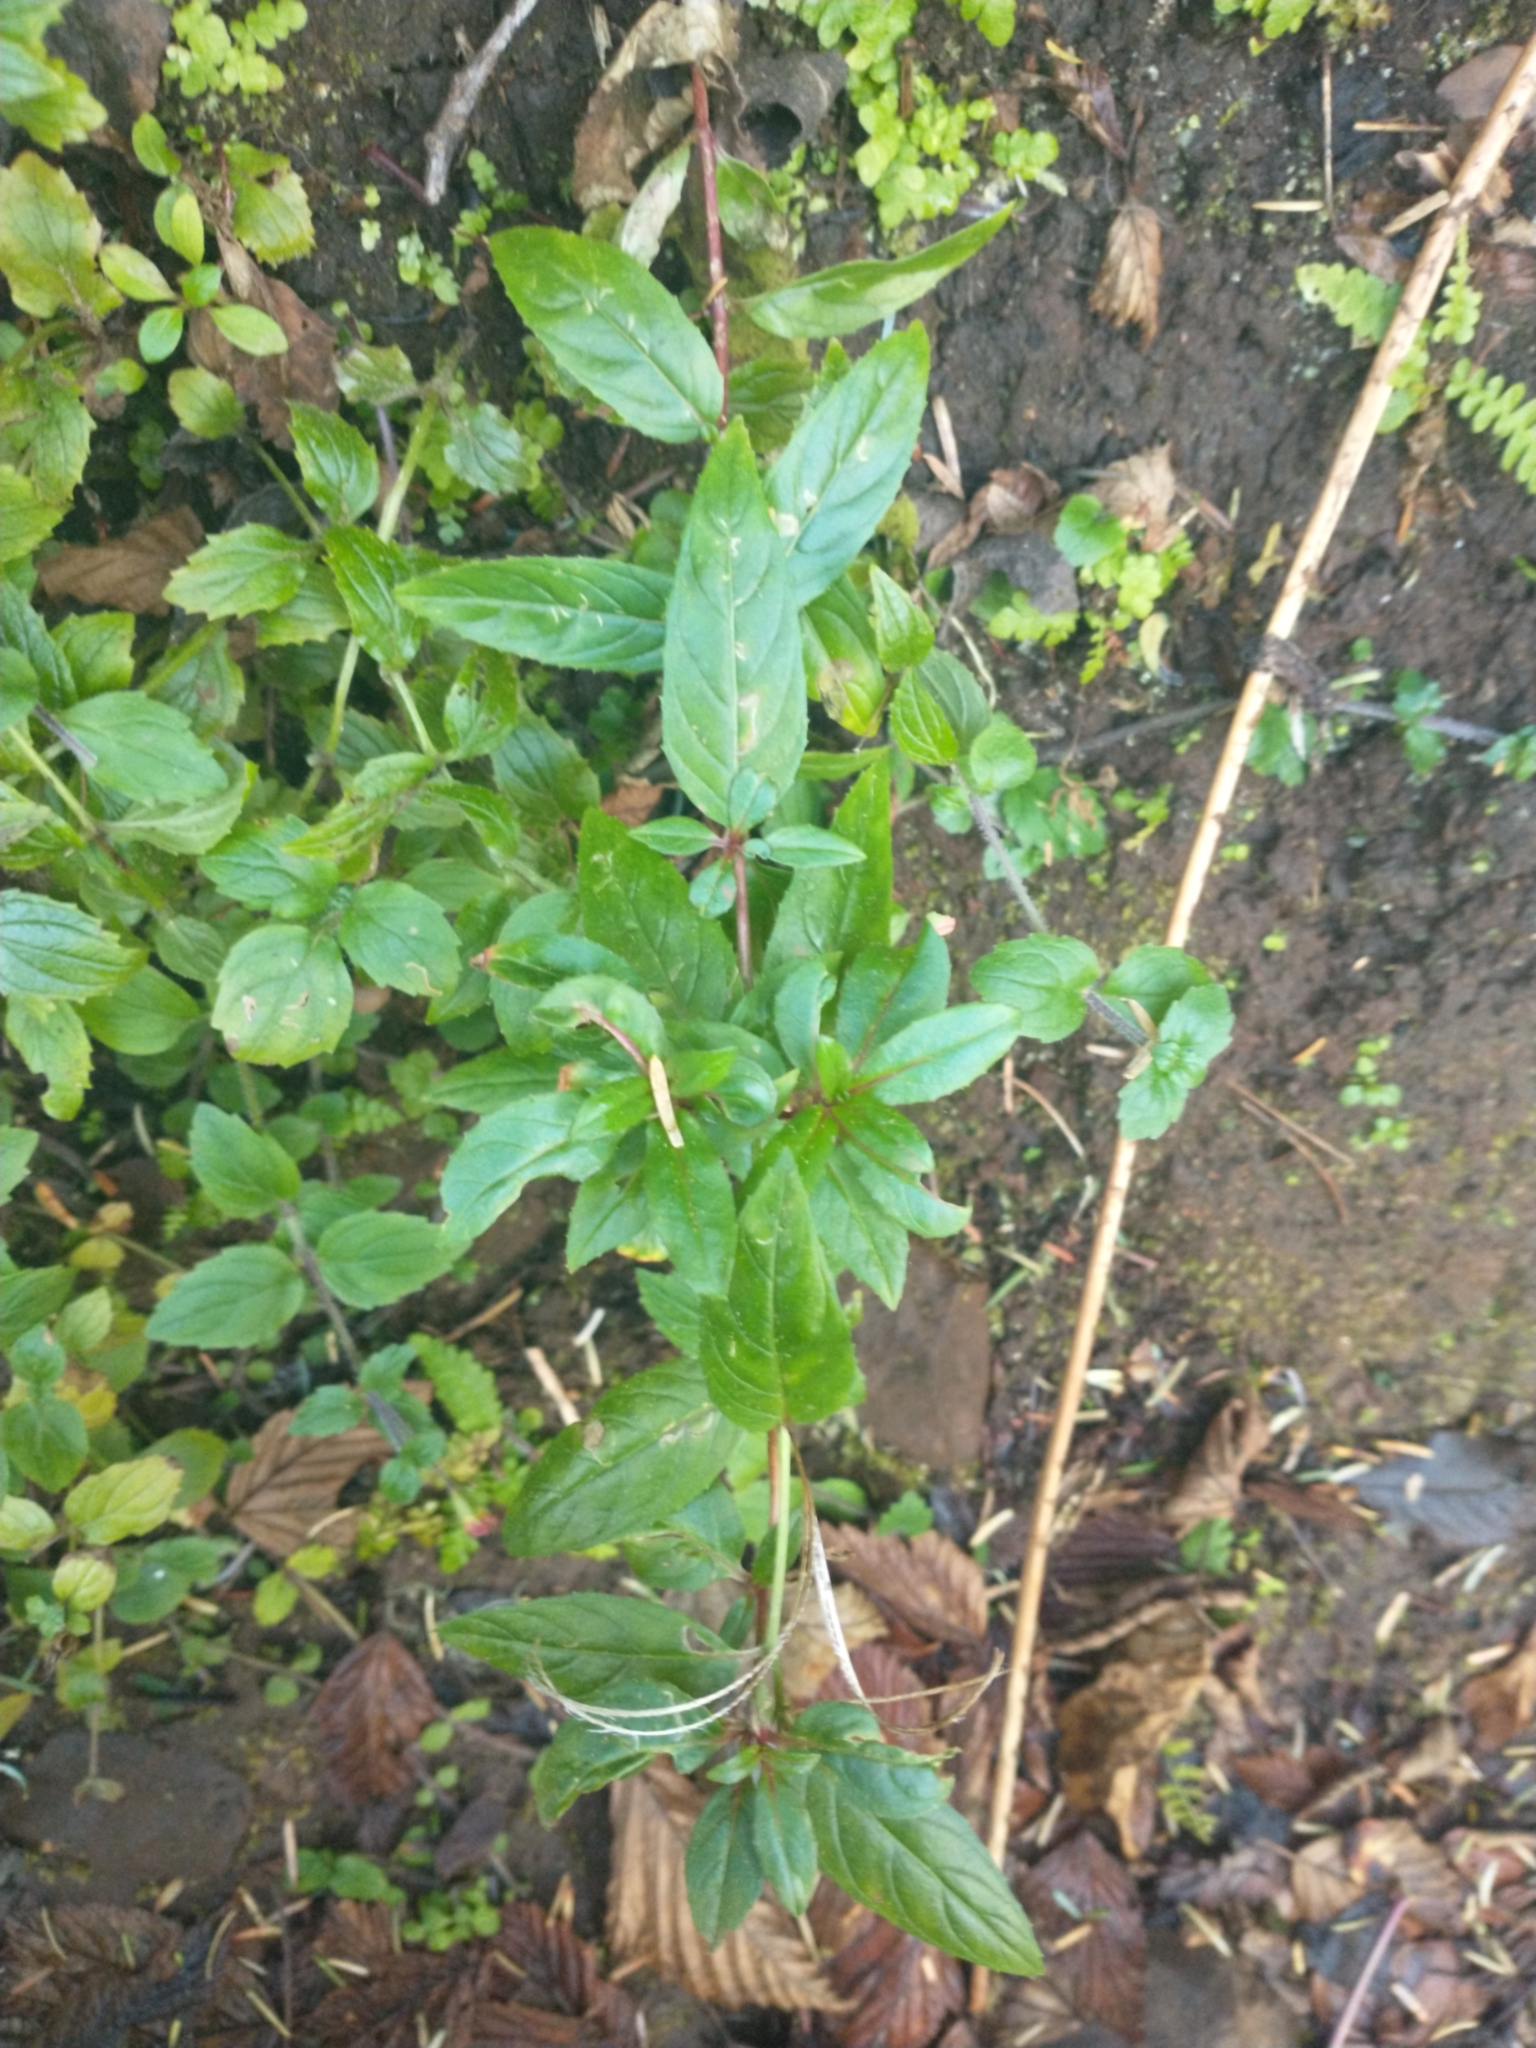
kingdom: Plantae
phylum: Tracheophyta
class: Magnoliopsida
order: Myrtales
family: Onagraceae
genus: Epilobium
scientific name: Epilobium ciliatum
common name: American willowherb
